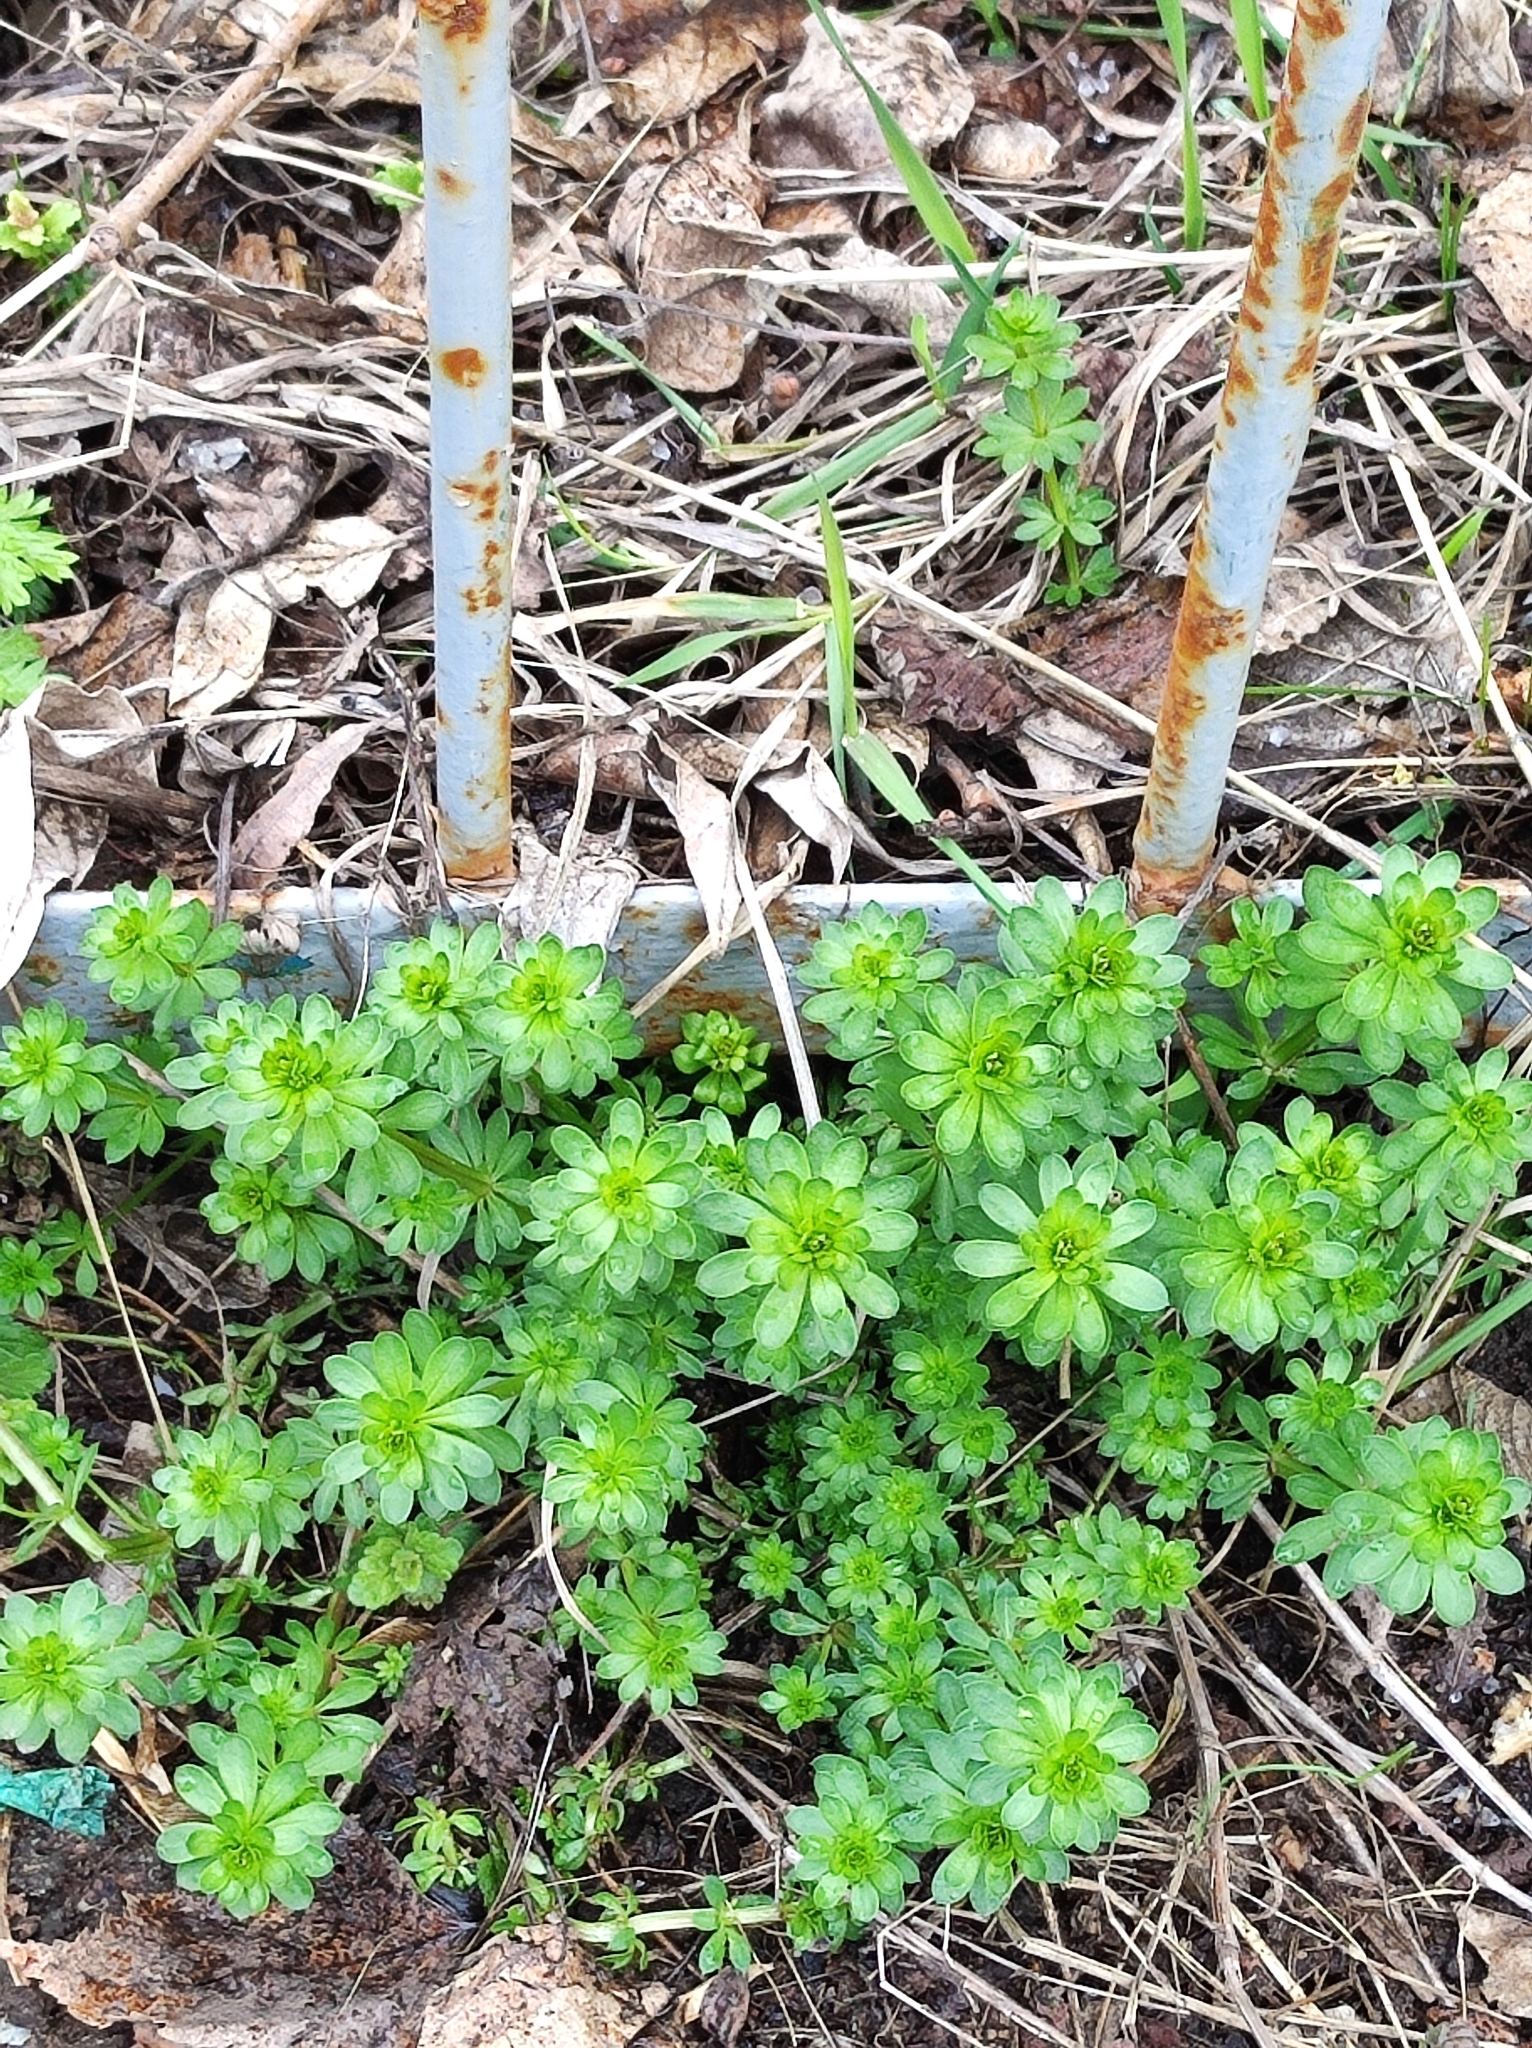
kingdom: Plantae
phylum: Tracheophyta
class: Magnoliopsida
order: Gentianales
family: Rubiaceae
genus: Galium
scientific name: Galium mollugo
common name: Hedge bedstraw
